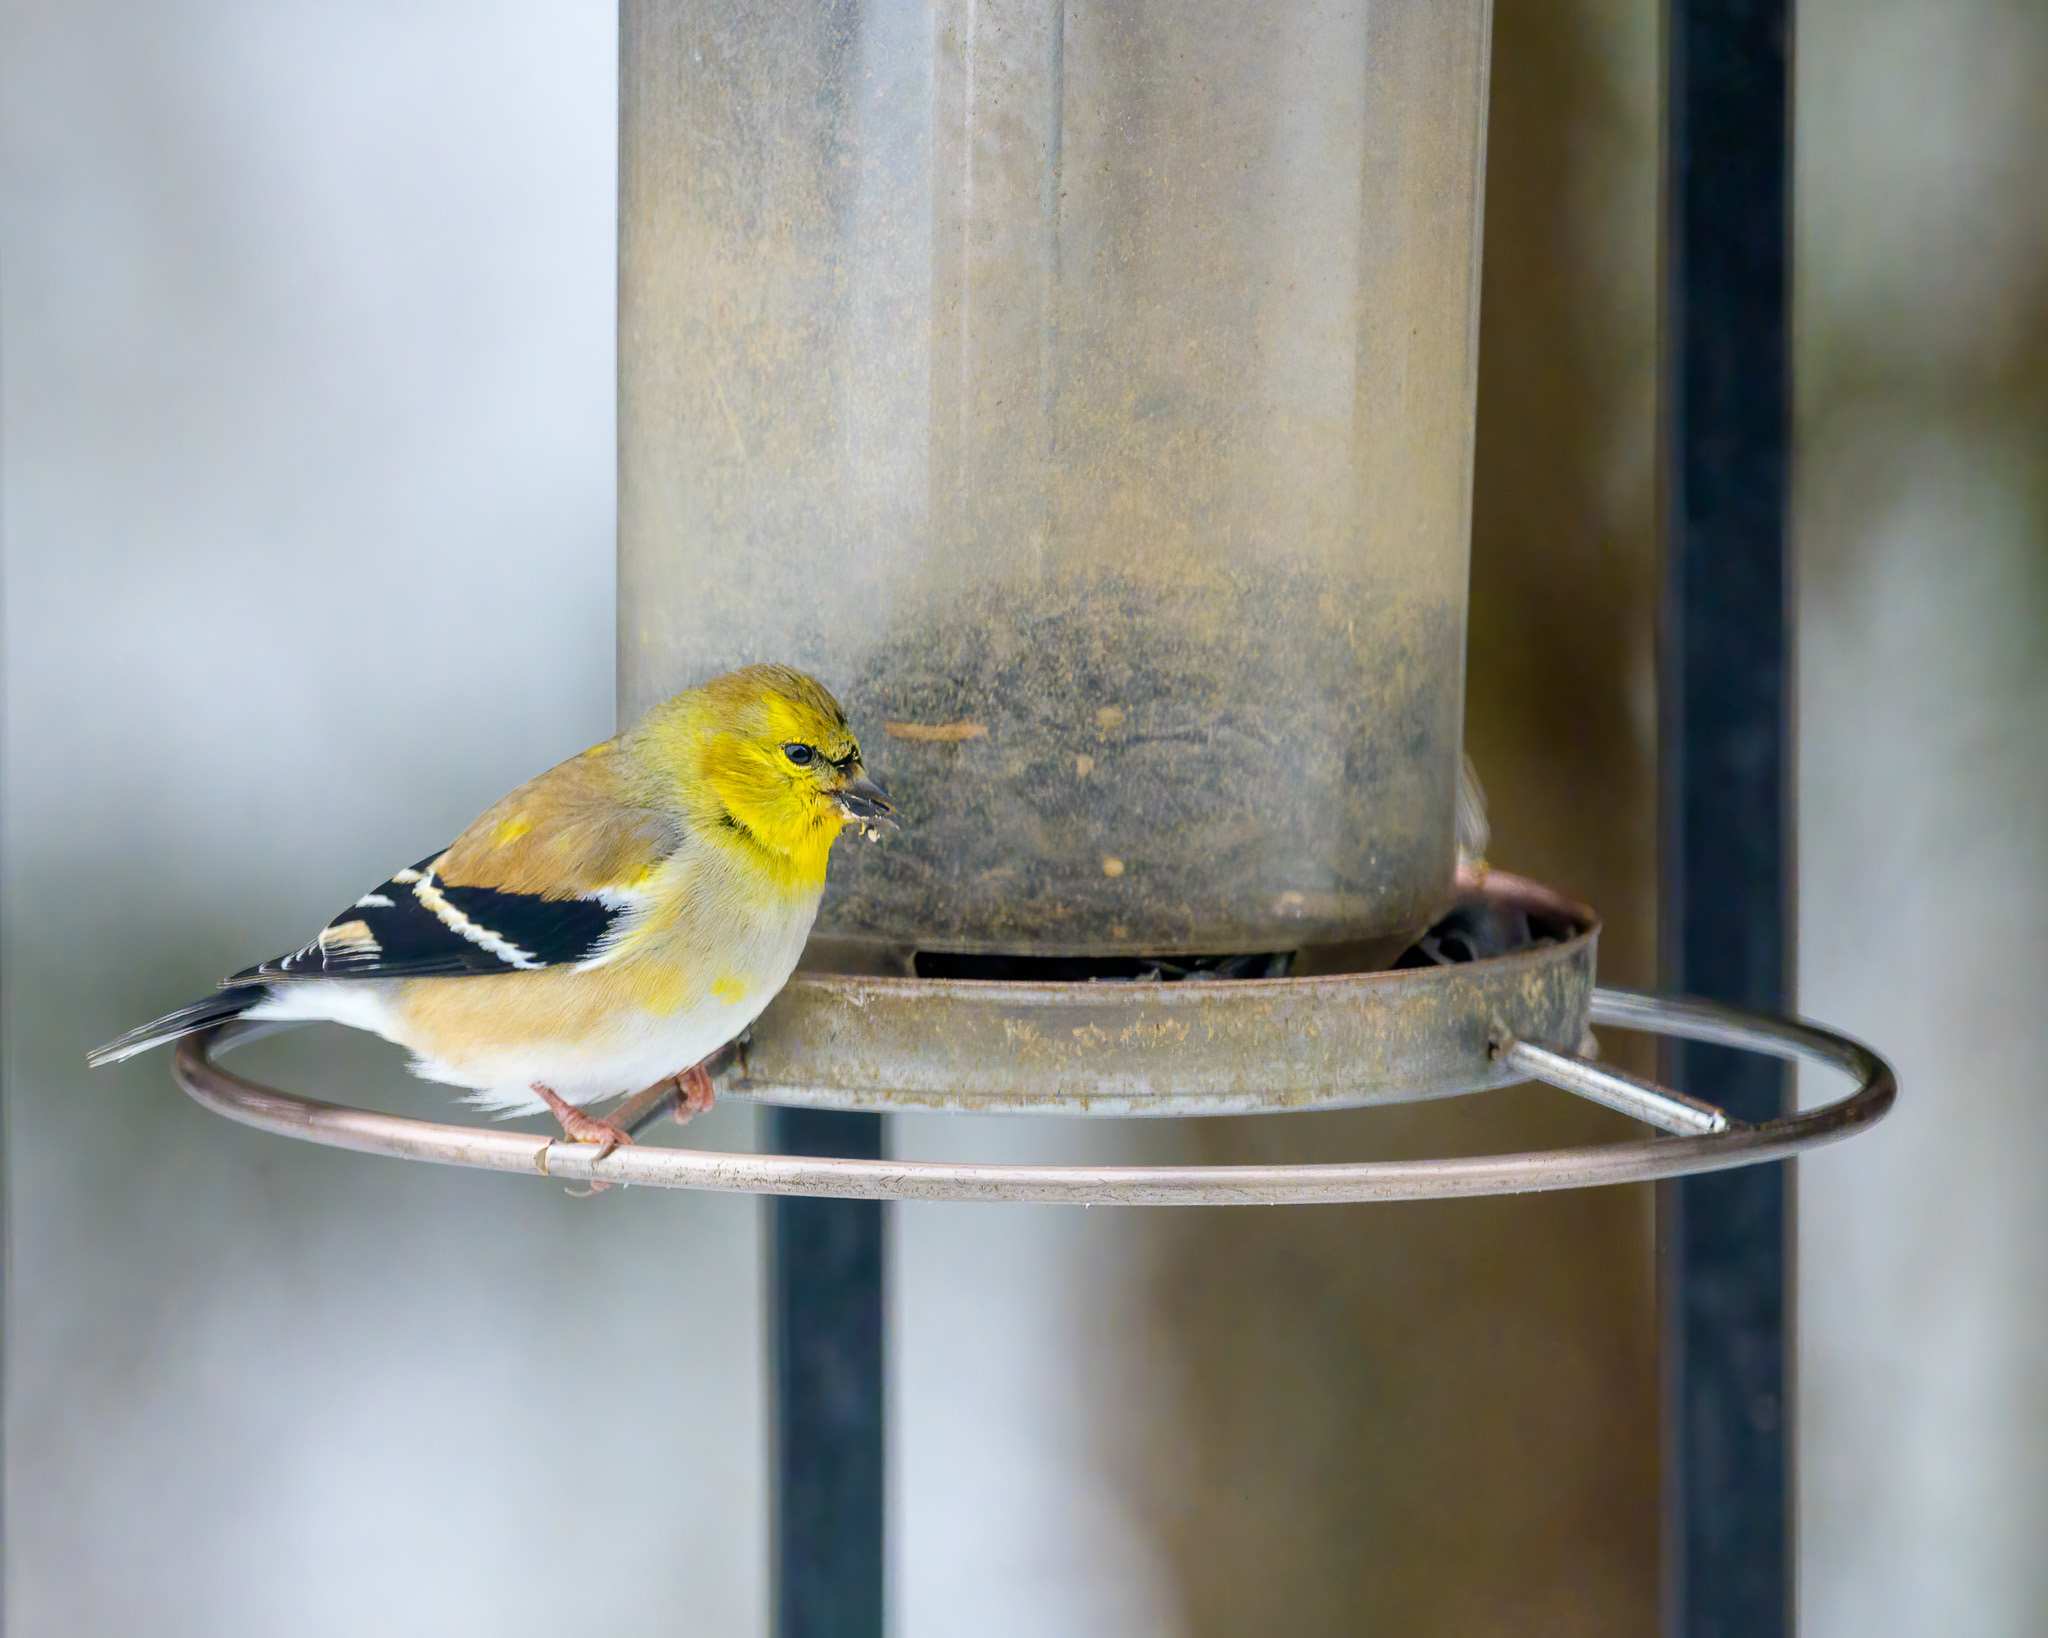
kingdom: Animalia
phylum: Chordata
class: Aves
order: Passeriformes
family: Fringillidae
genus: Spinus
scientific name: Spinus tristis
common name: American goldfinch
